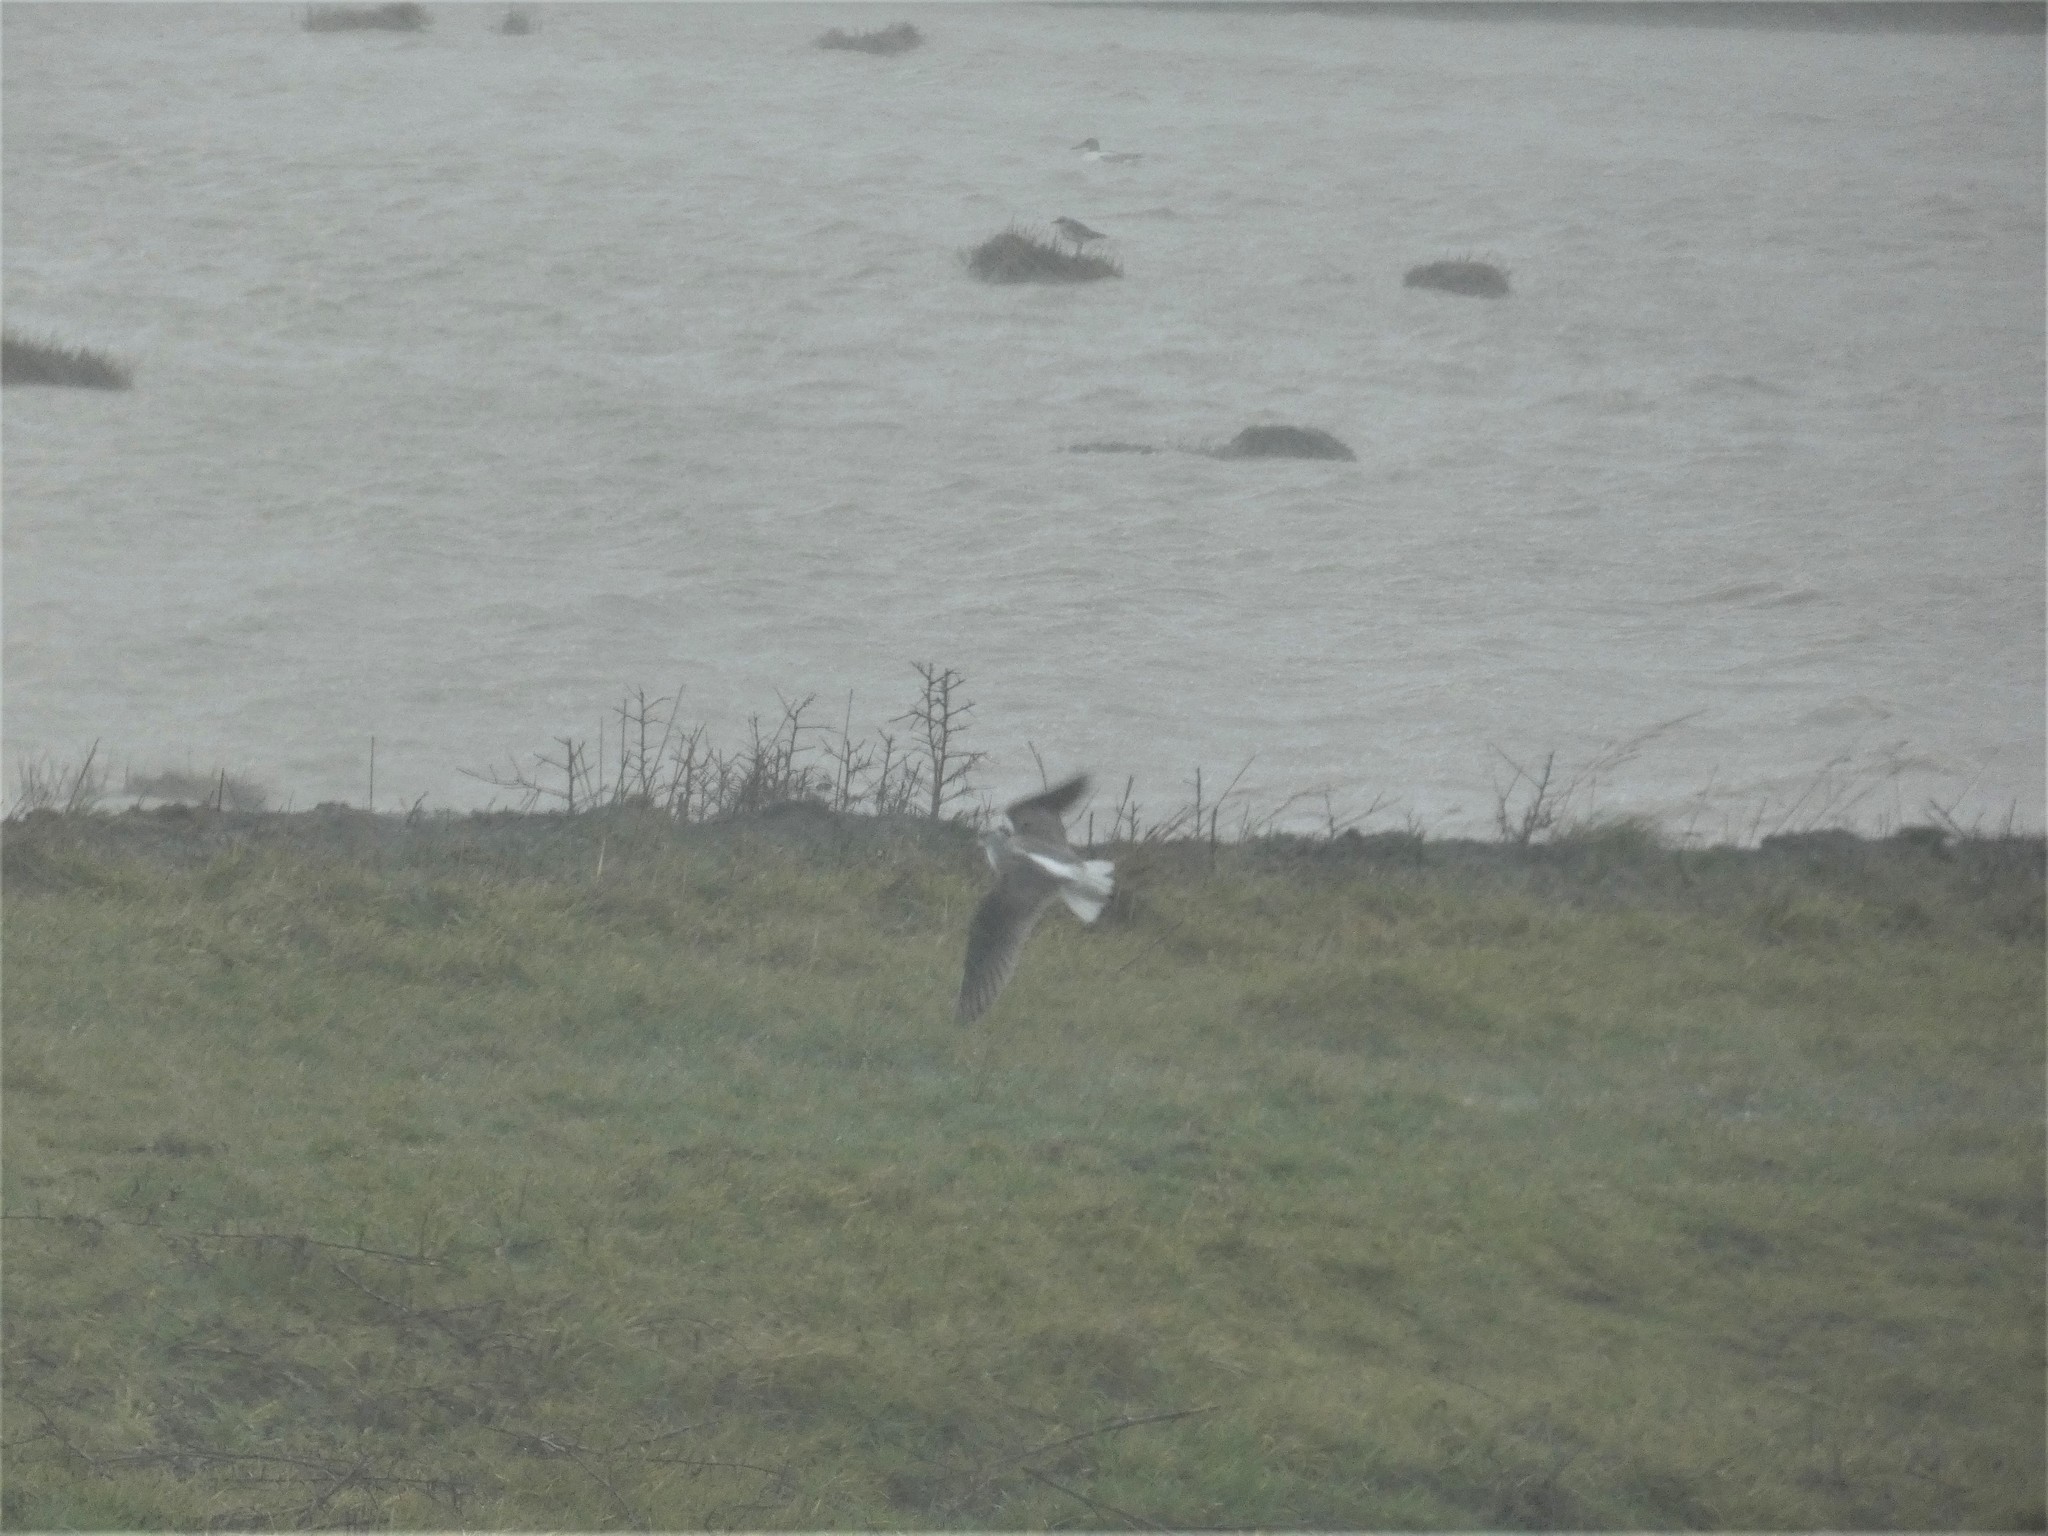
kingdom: Animalia
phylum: Chordata
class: Aves
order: Charadriiformes
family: Scolopacidae
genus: Tringa
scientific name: Tringa nebularia
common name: Common greenshank
